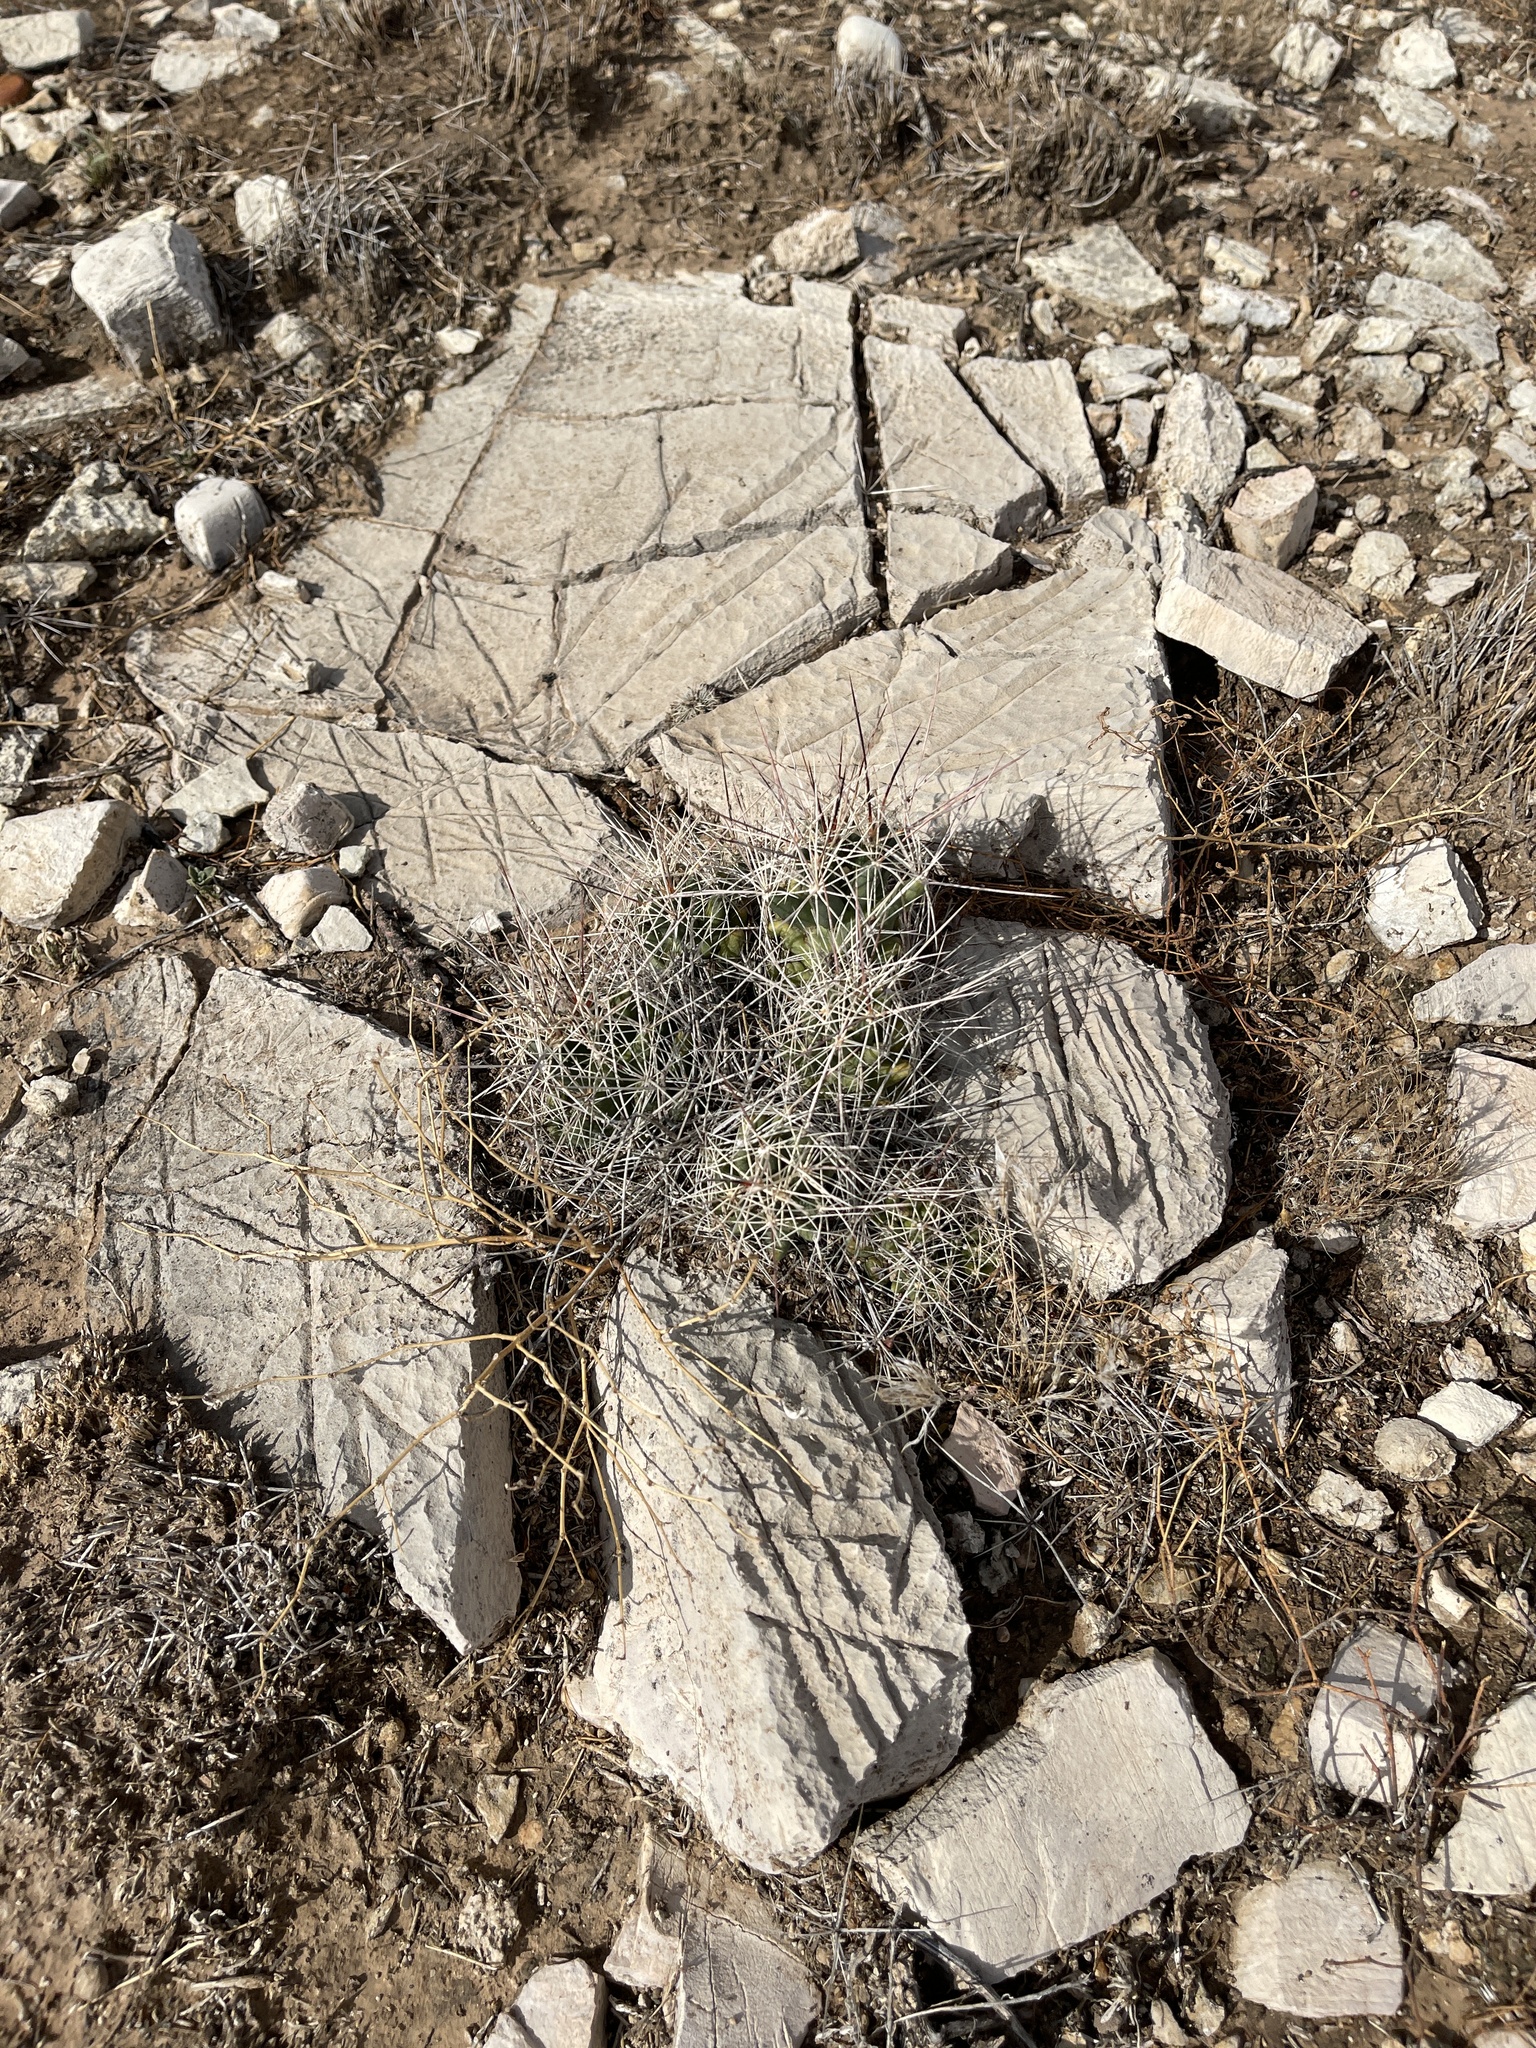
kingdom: Plantae
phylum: Tracheophyta
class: Magnoliopsida
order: Caryophyllales
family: Cactaceae
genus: Coryphantha
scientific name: Coryphantha macromeris
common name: Nipple beehive cactus
